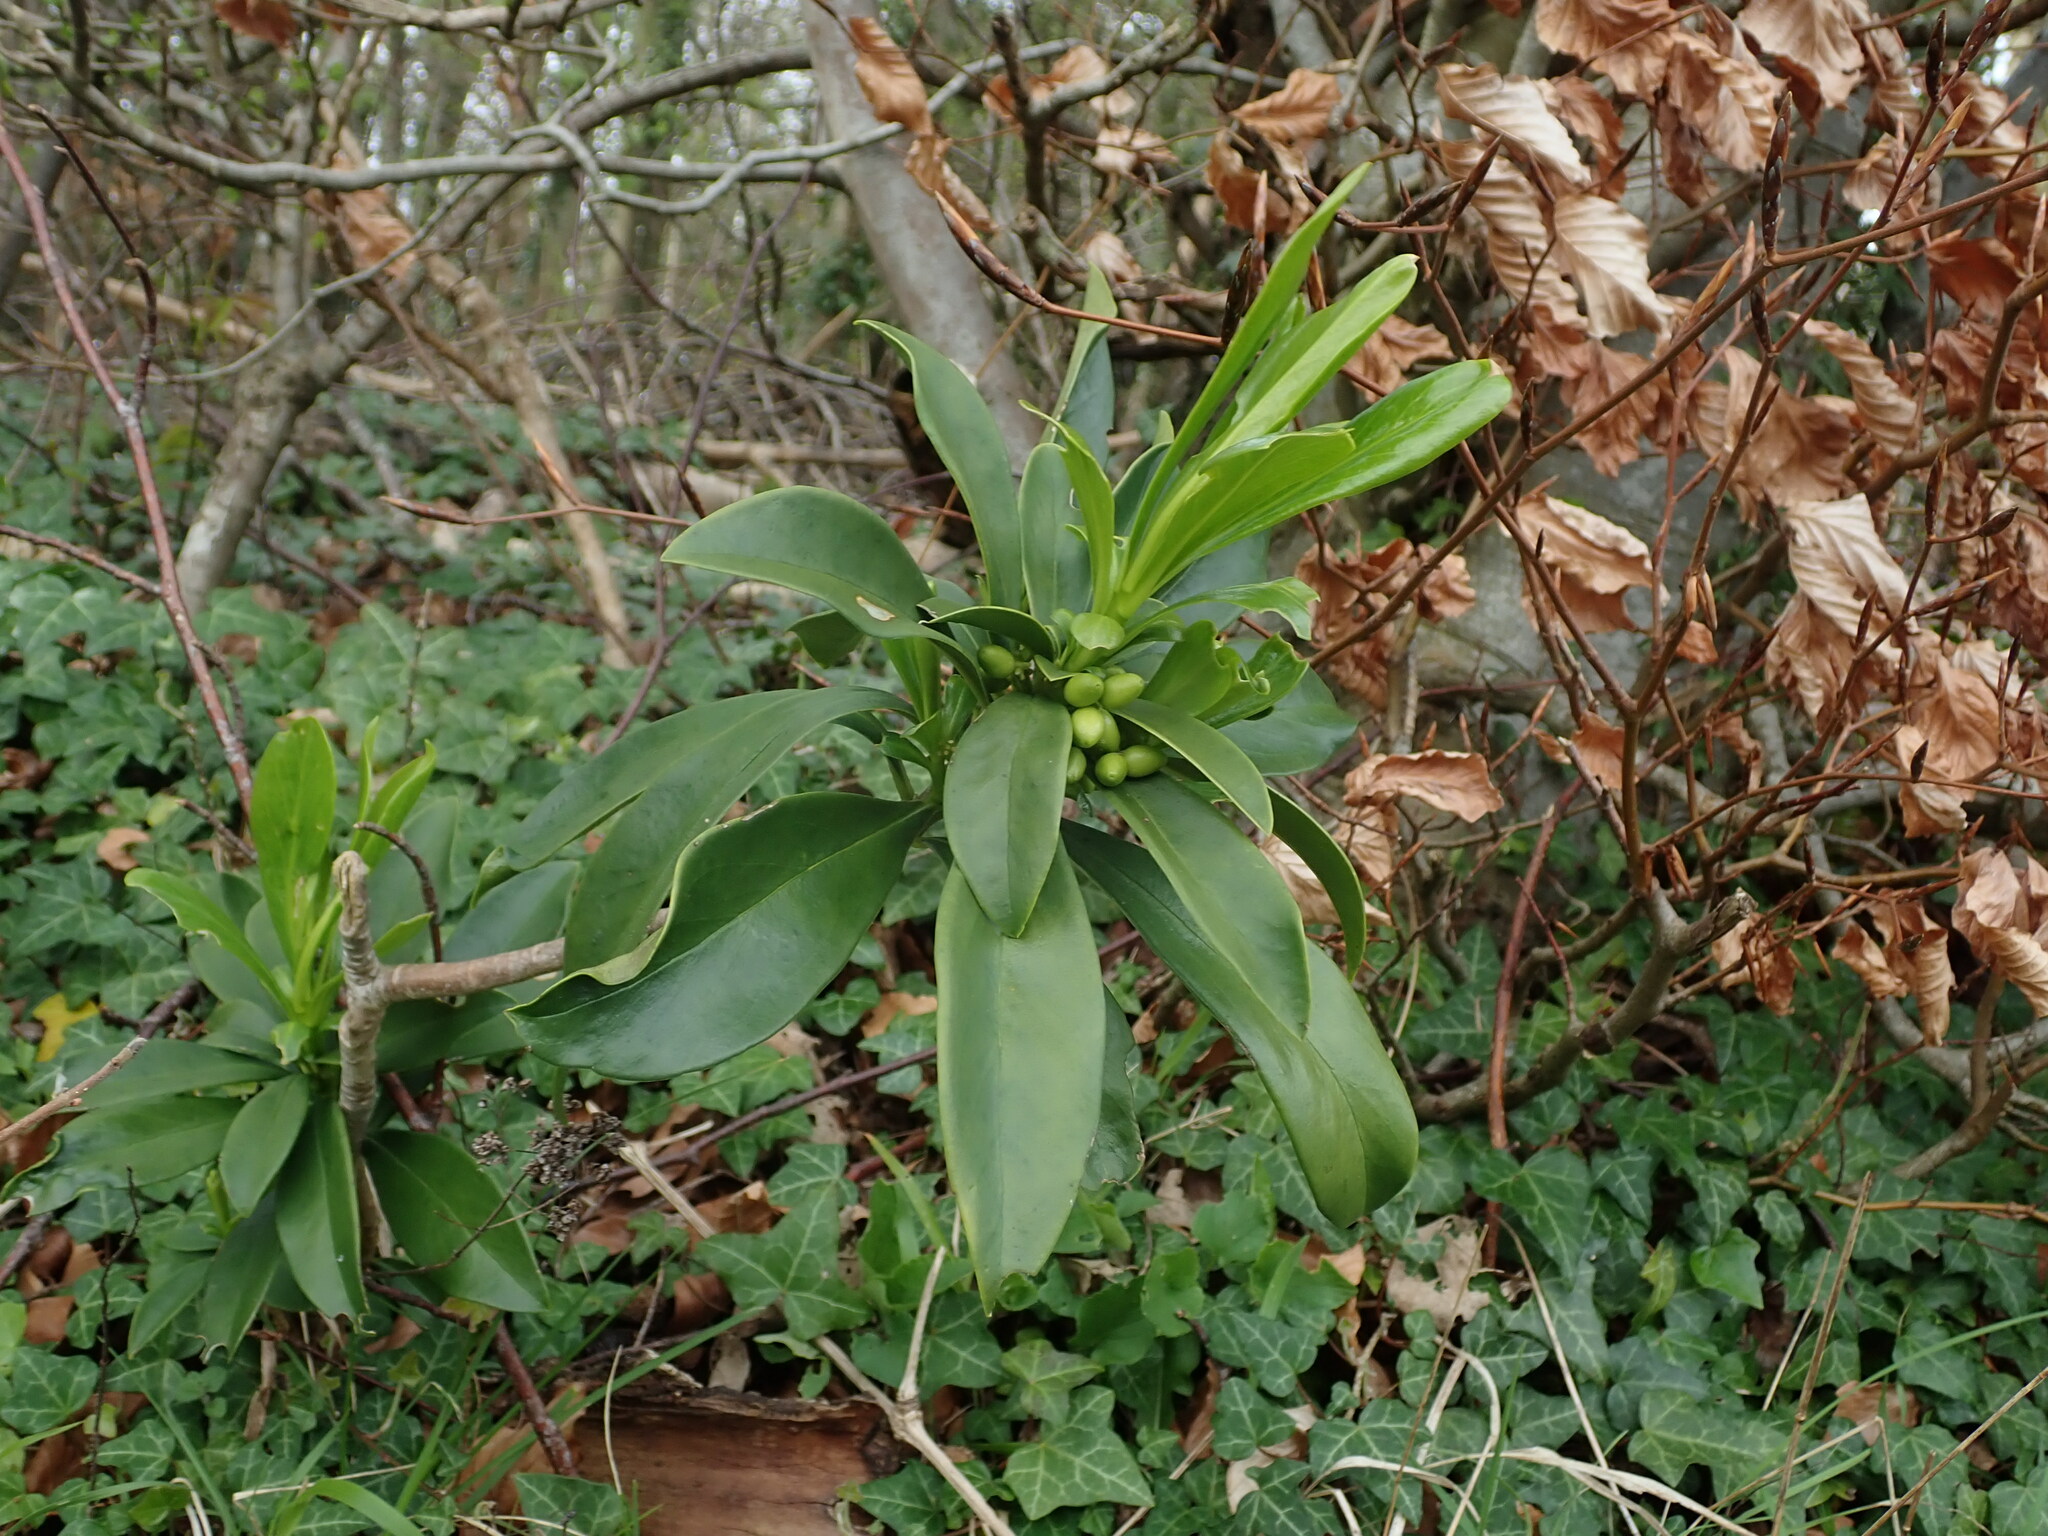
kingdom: Plantae
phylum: Tracheophyta
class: Magnoliopsida
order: Malvales
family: Thymelaeaceae
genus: Daphne
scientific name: Daphne laureola
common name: Spurge-laurel
